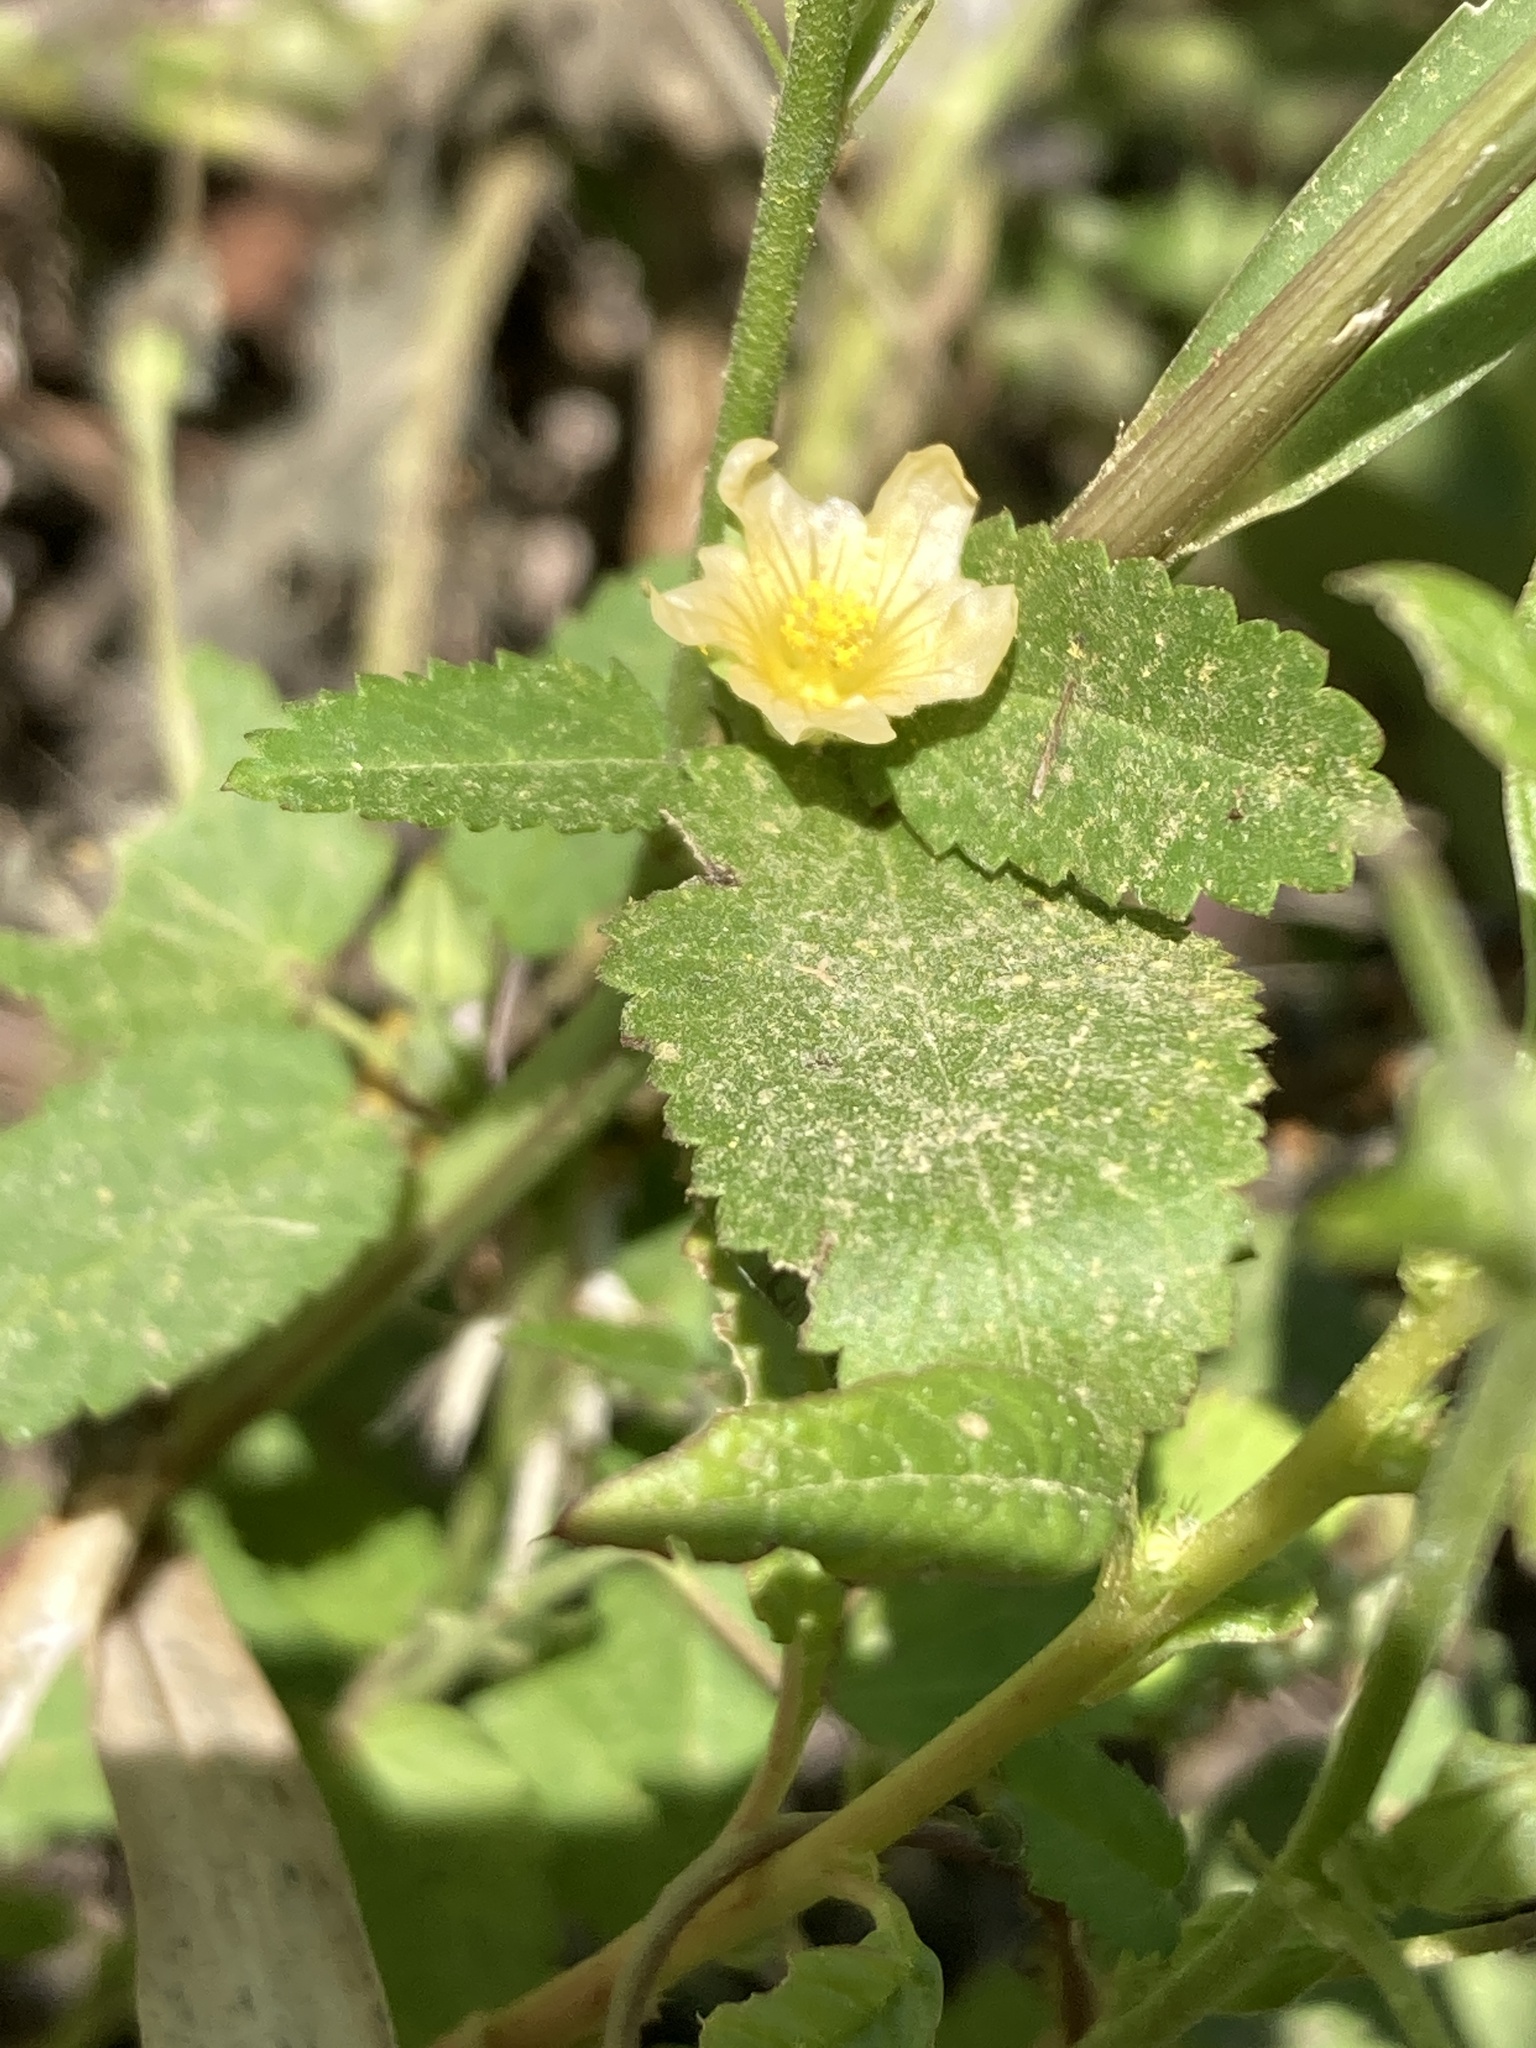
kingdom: Plantae
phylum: Tracheophyta
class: Magnoliopsida
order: Malvales
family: Malvaceae
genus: Sida
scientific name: Sida spinosa
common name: Prickly fanpetals
